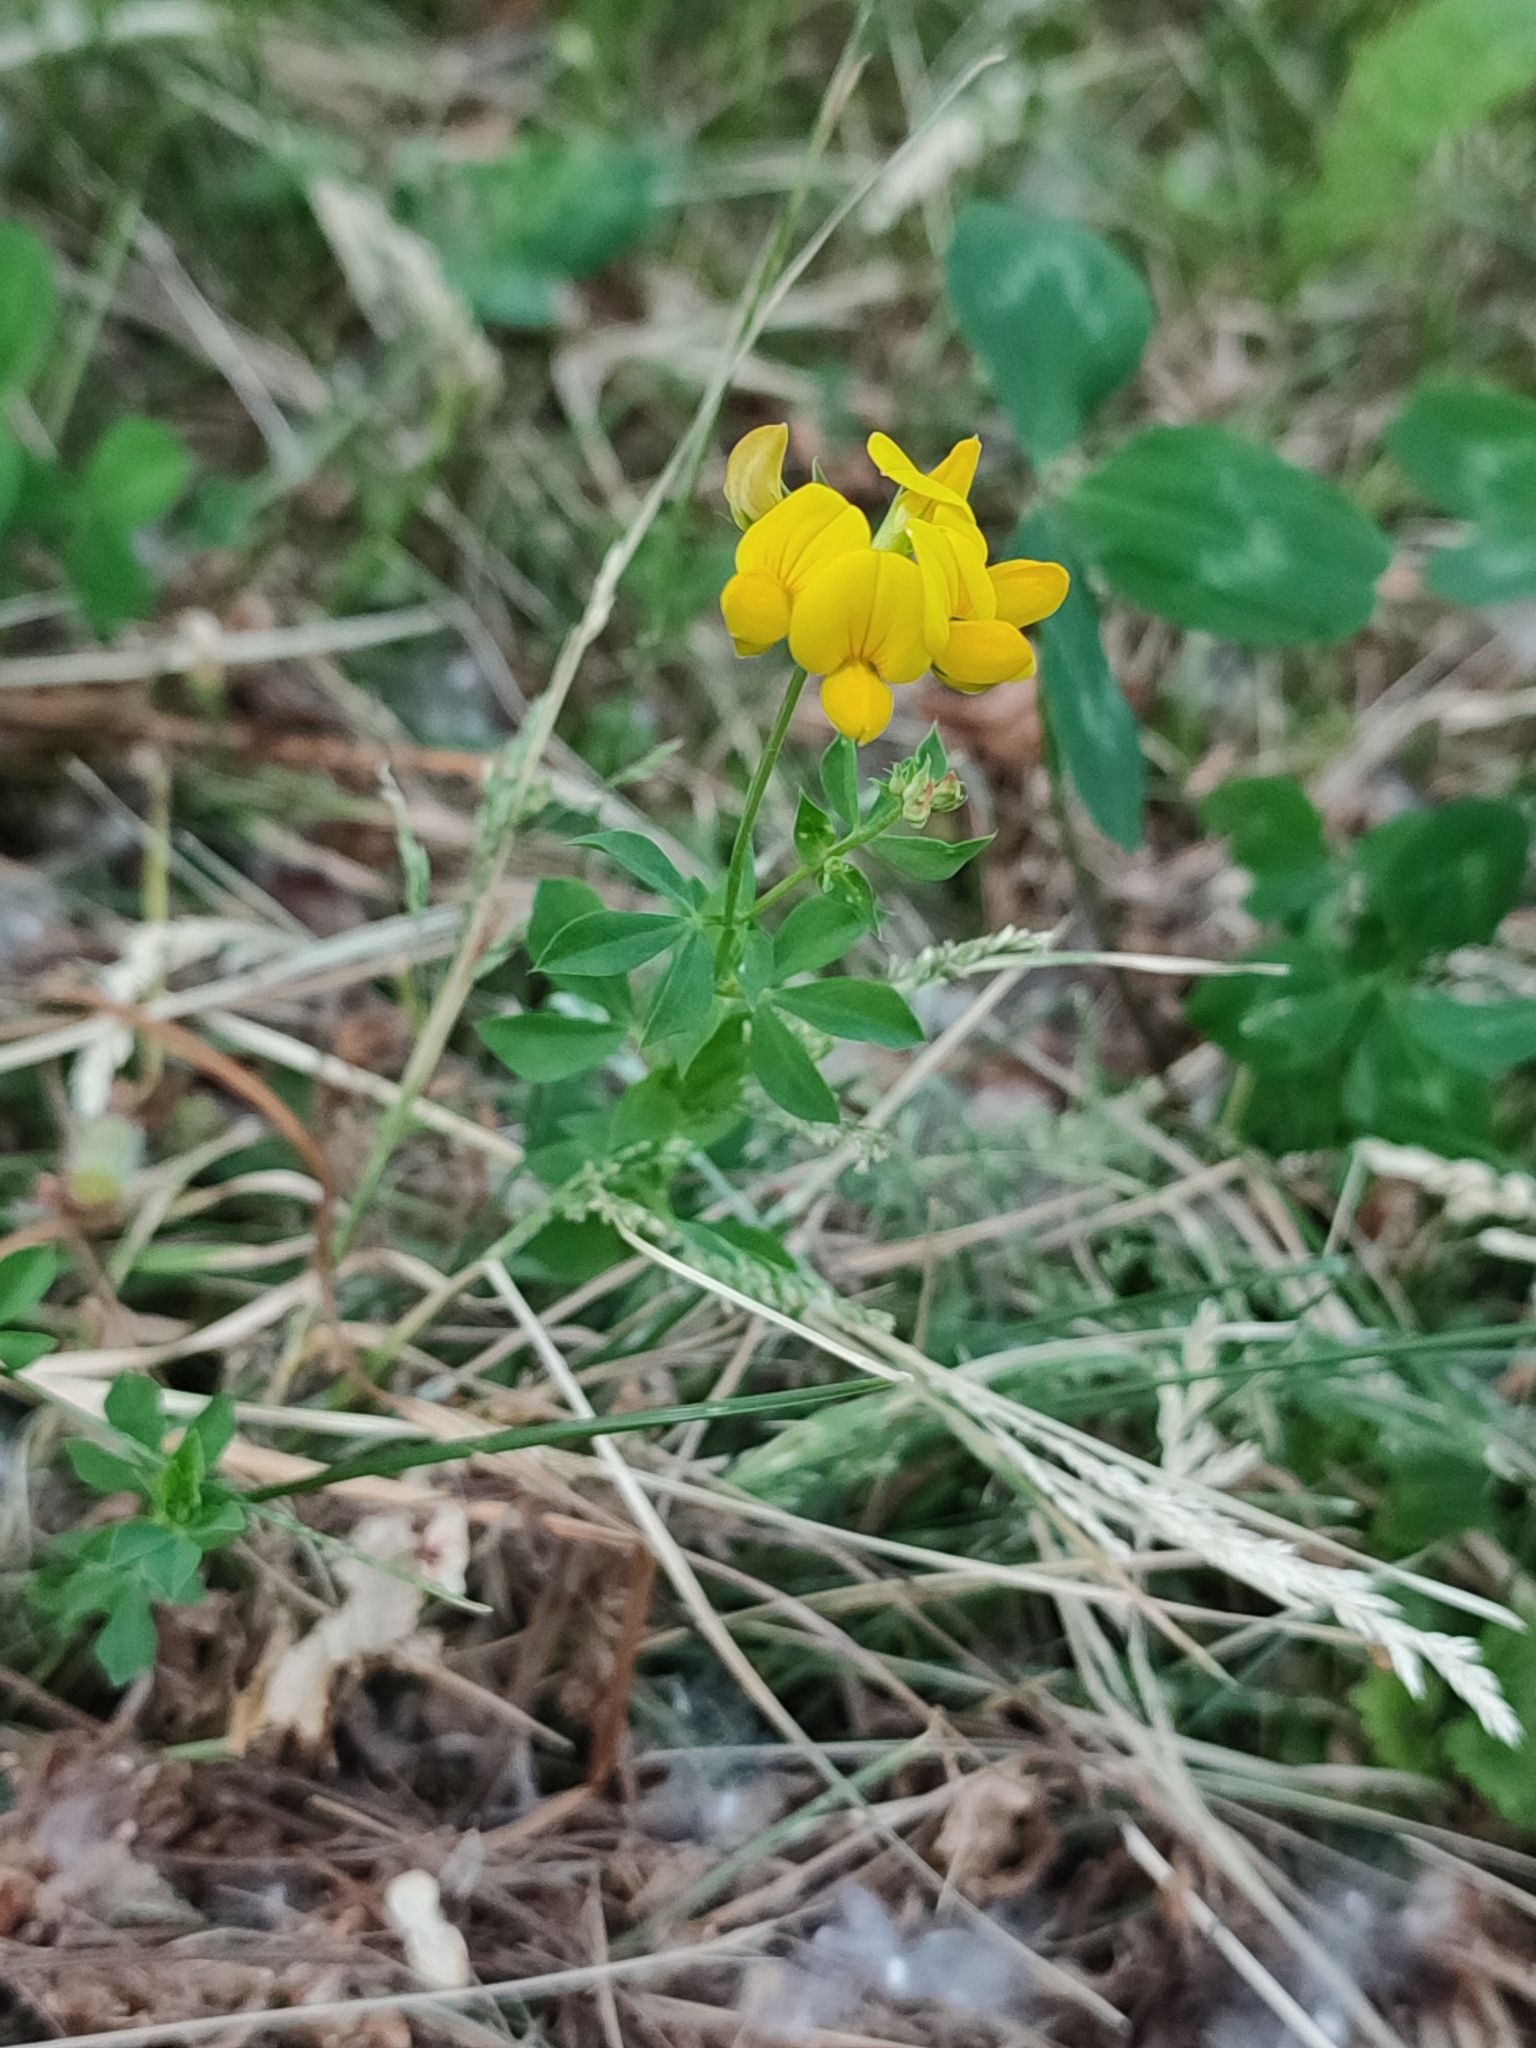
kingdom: Plantae
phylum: Tracheophyta
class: Magnoliopsida
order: Fabales
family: Fabaceae
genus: Lotus
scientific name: Lotus corniculatus
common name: Common bird's-foot-trefoil
